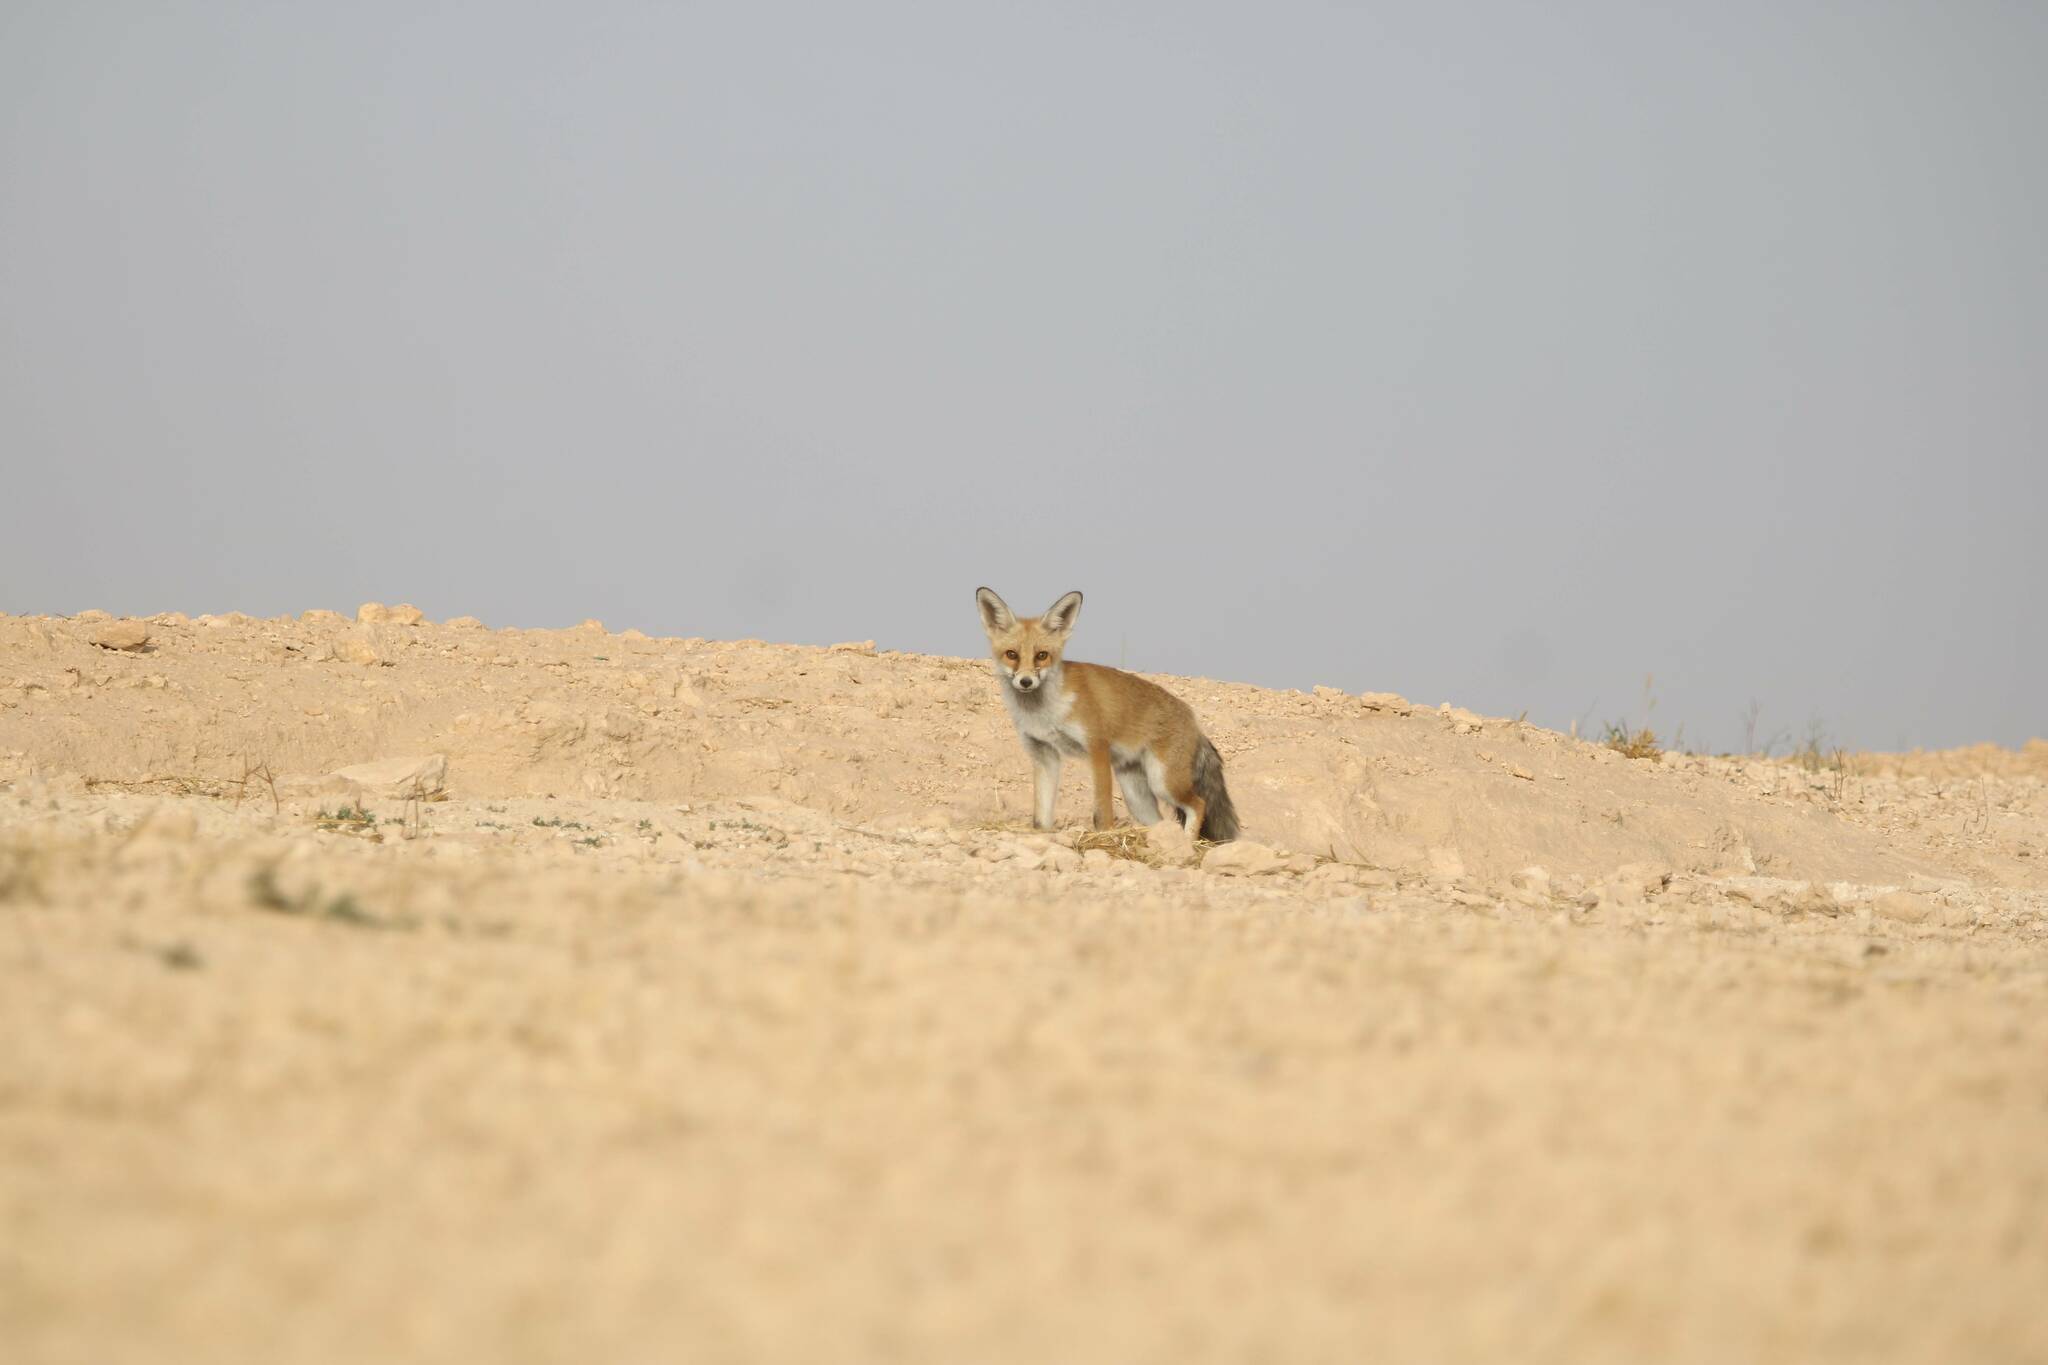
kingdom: Animalia
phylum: Chordata
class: Mammalia
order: Carnivora
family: Canidae
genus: Vulpes
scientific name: Vulpes vulpes
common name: Red fox
